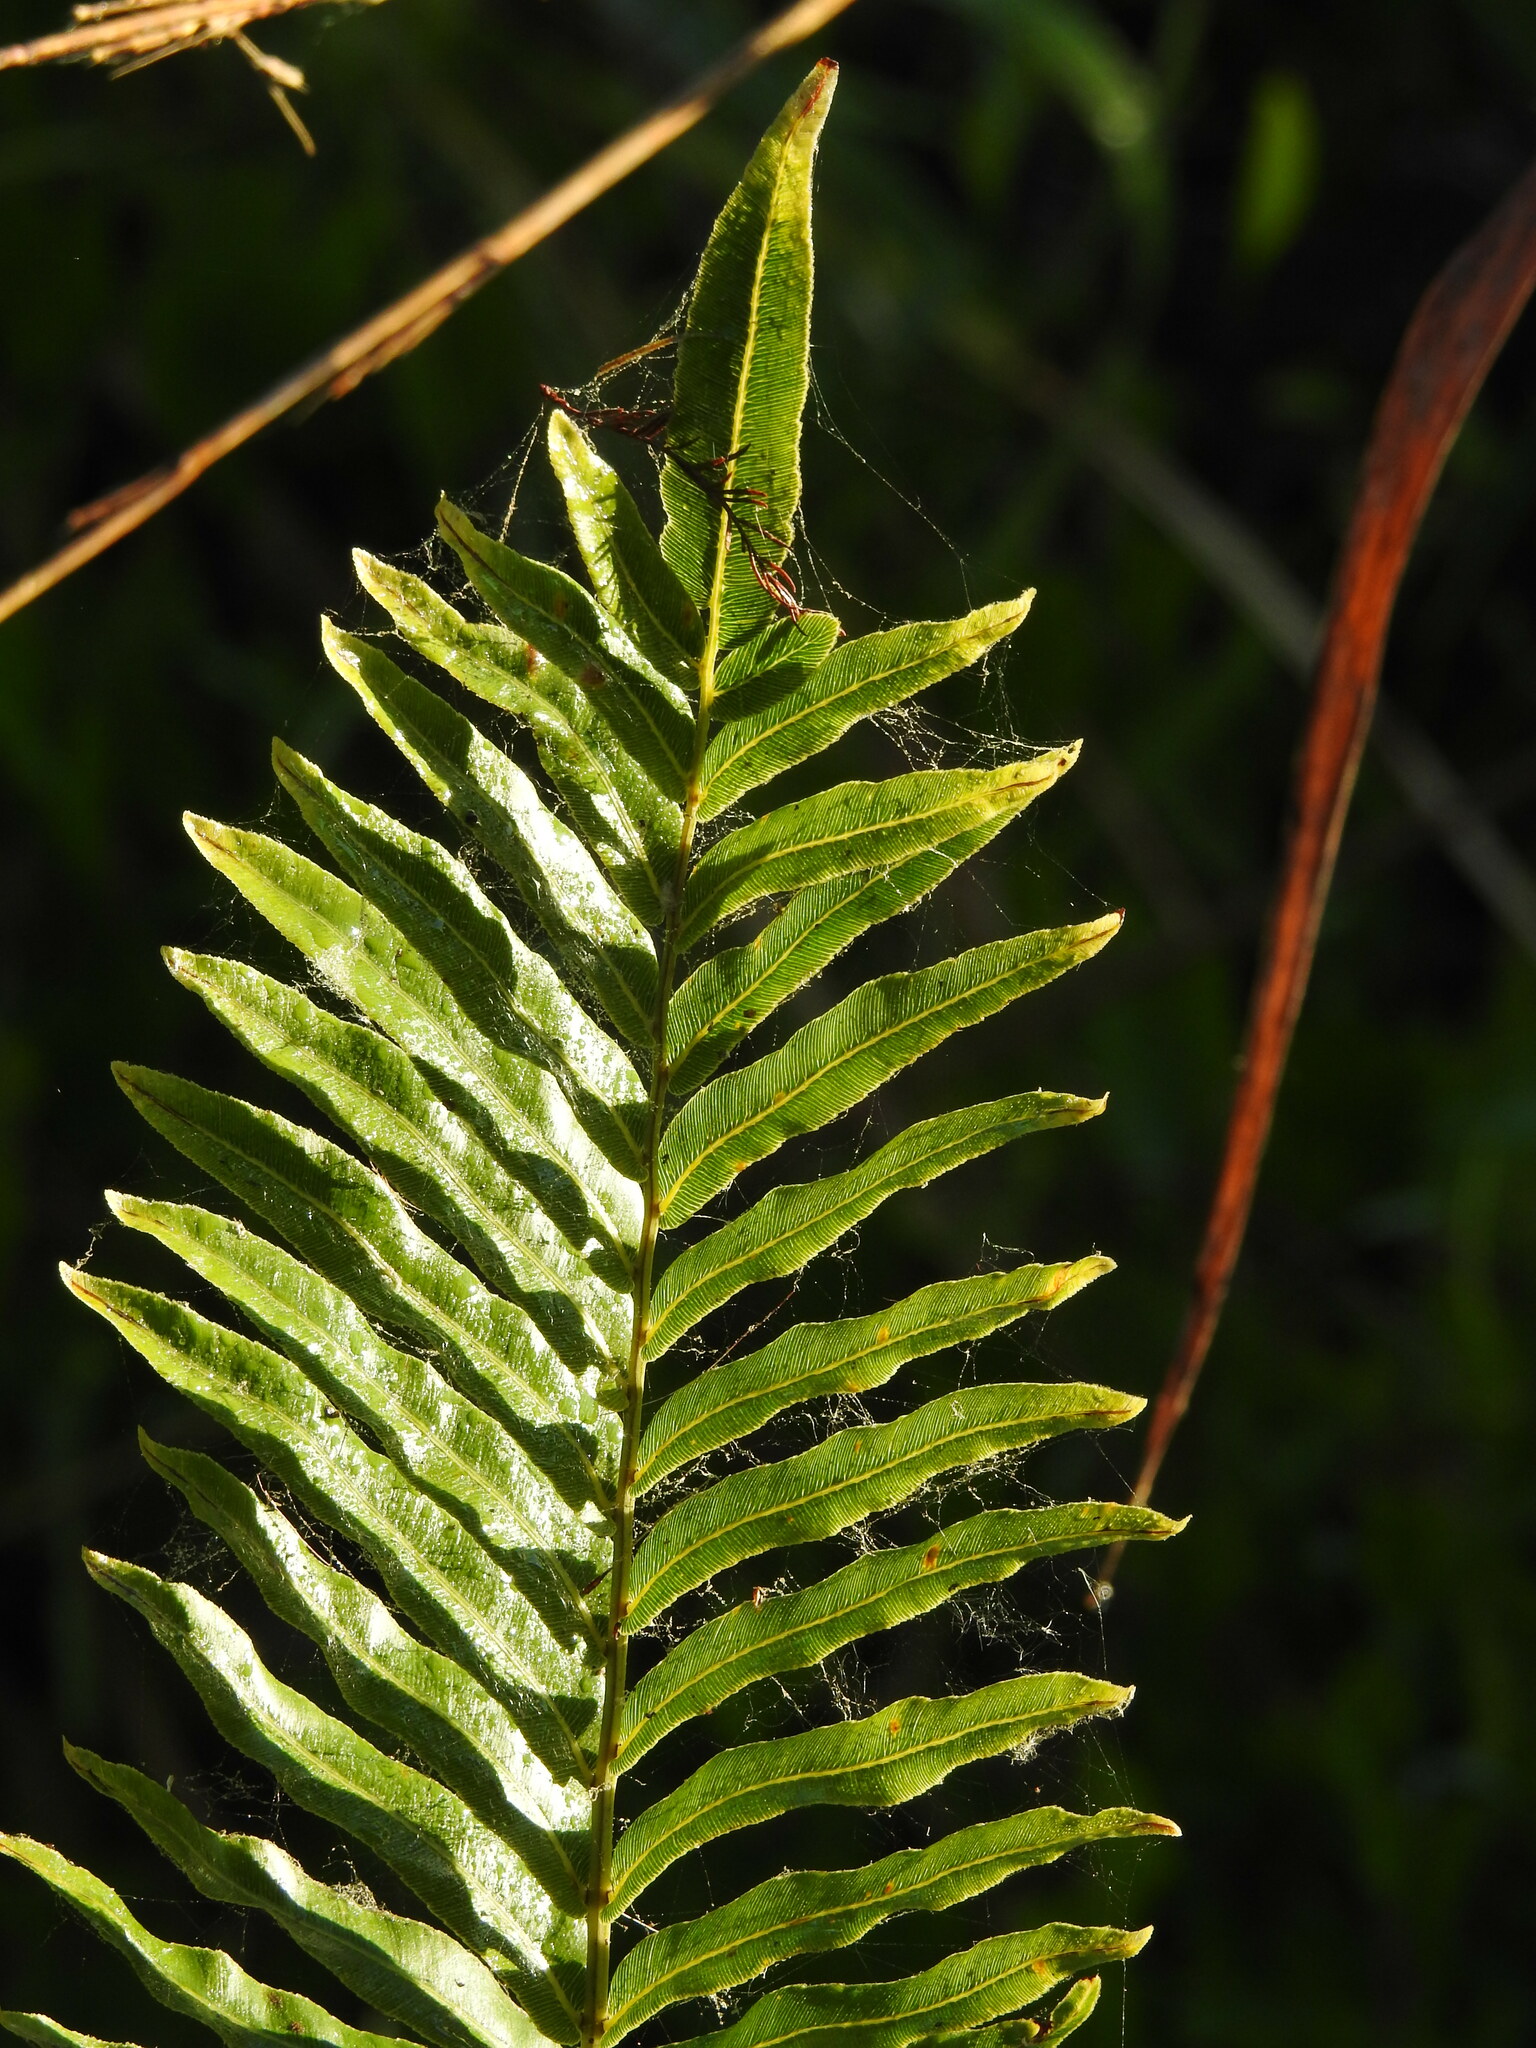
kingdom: Plantae
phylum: Tracheophyta
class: Polypodiopsida
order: Polypodiales
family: Blechnaceae
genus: Telmatoblechnum
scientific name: Telmatoblechnum serrulatum
